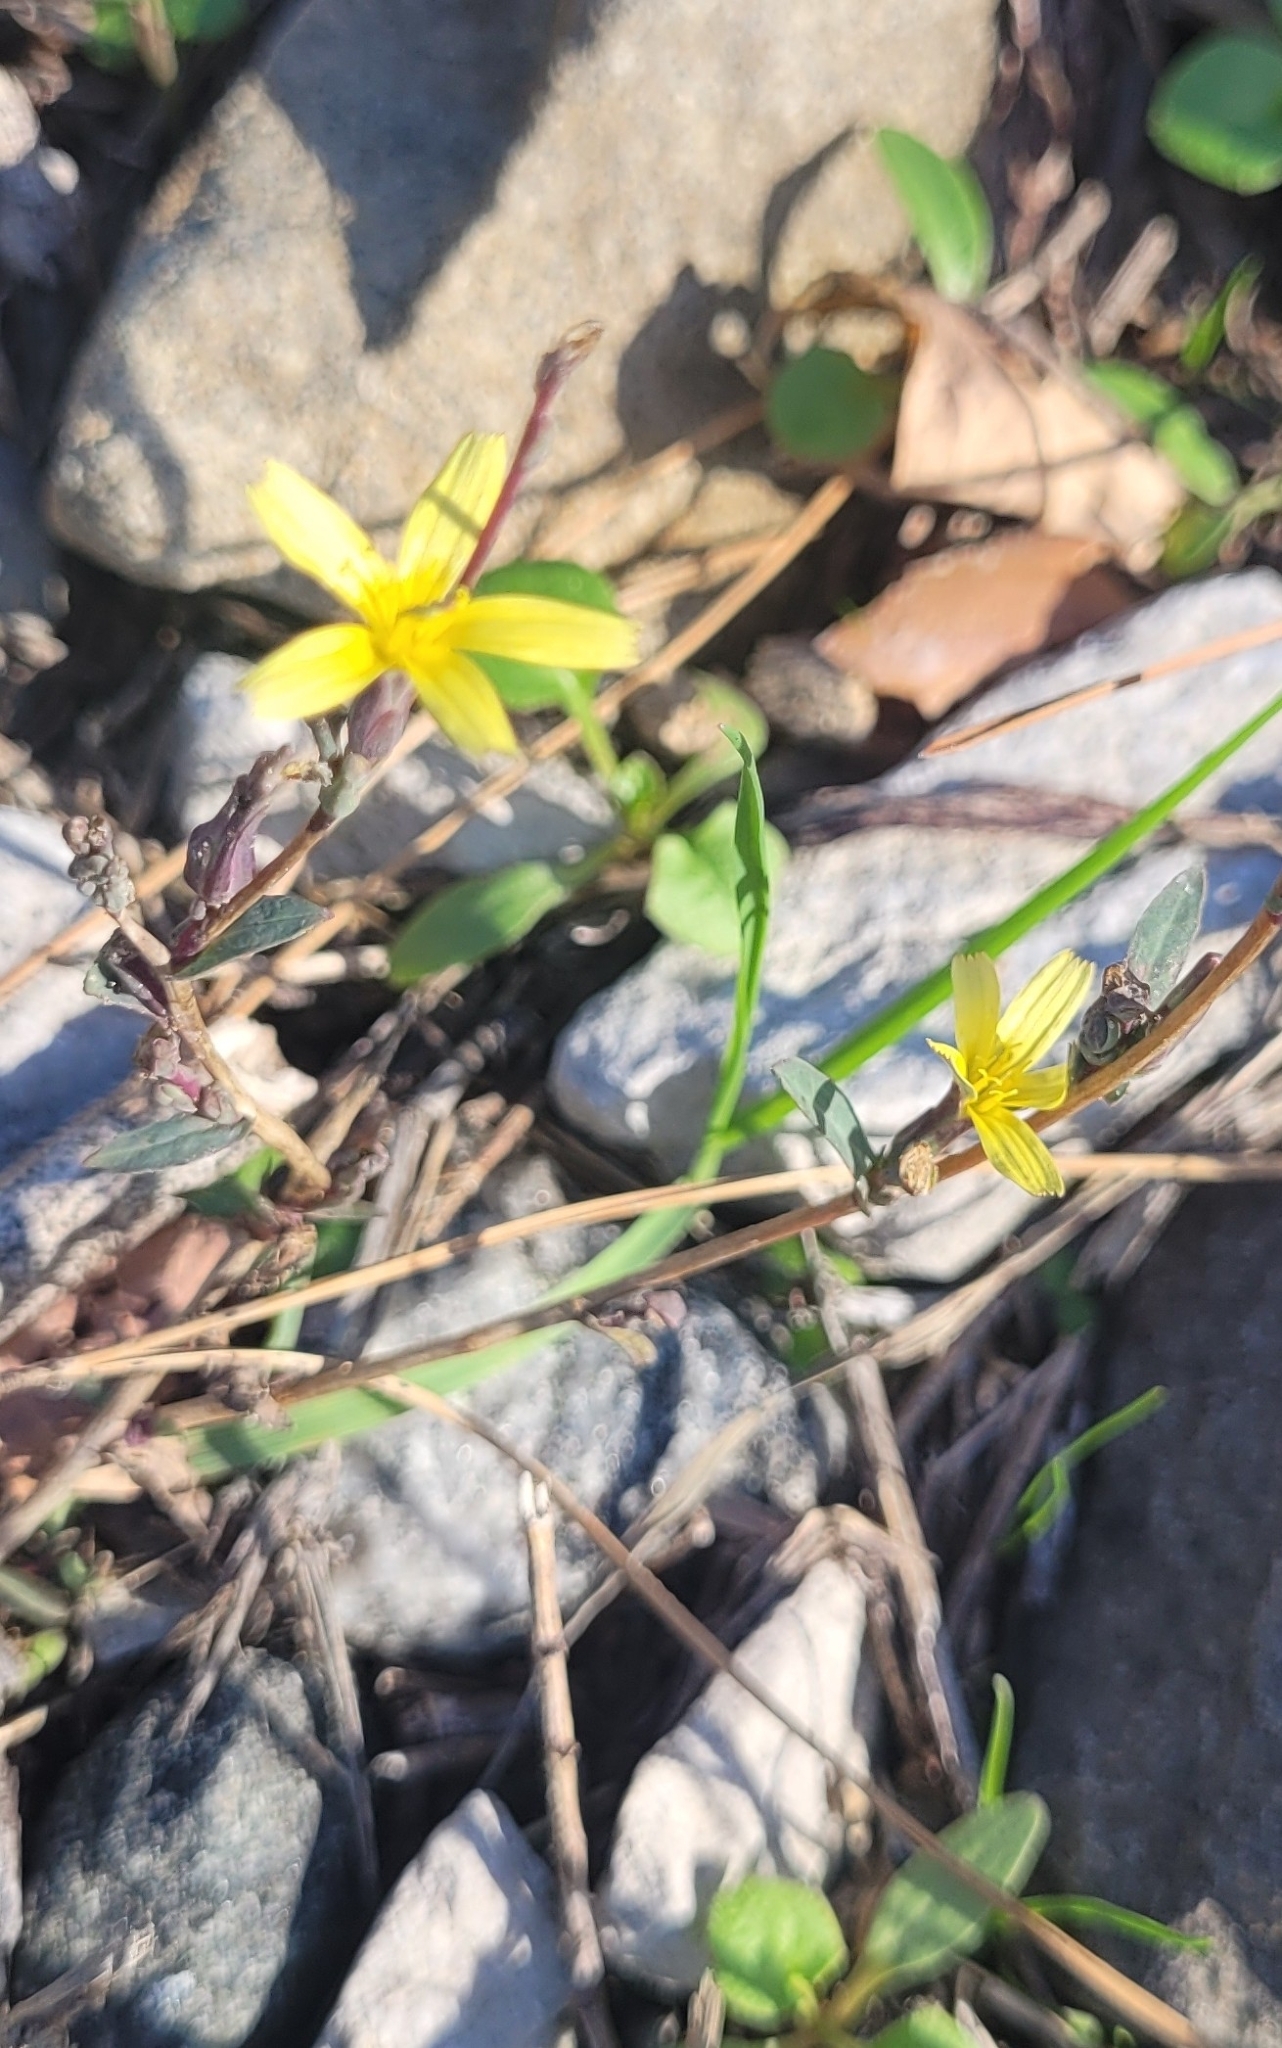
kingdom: Plantae
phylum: Tracheophyta
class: Magnoliopsida
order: Asterales
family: Asteraceae
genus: Lactuca
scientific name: Lactuca viminea
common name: Pliant lettuce
